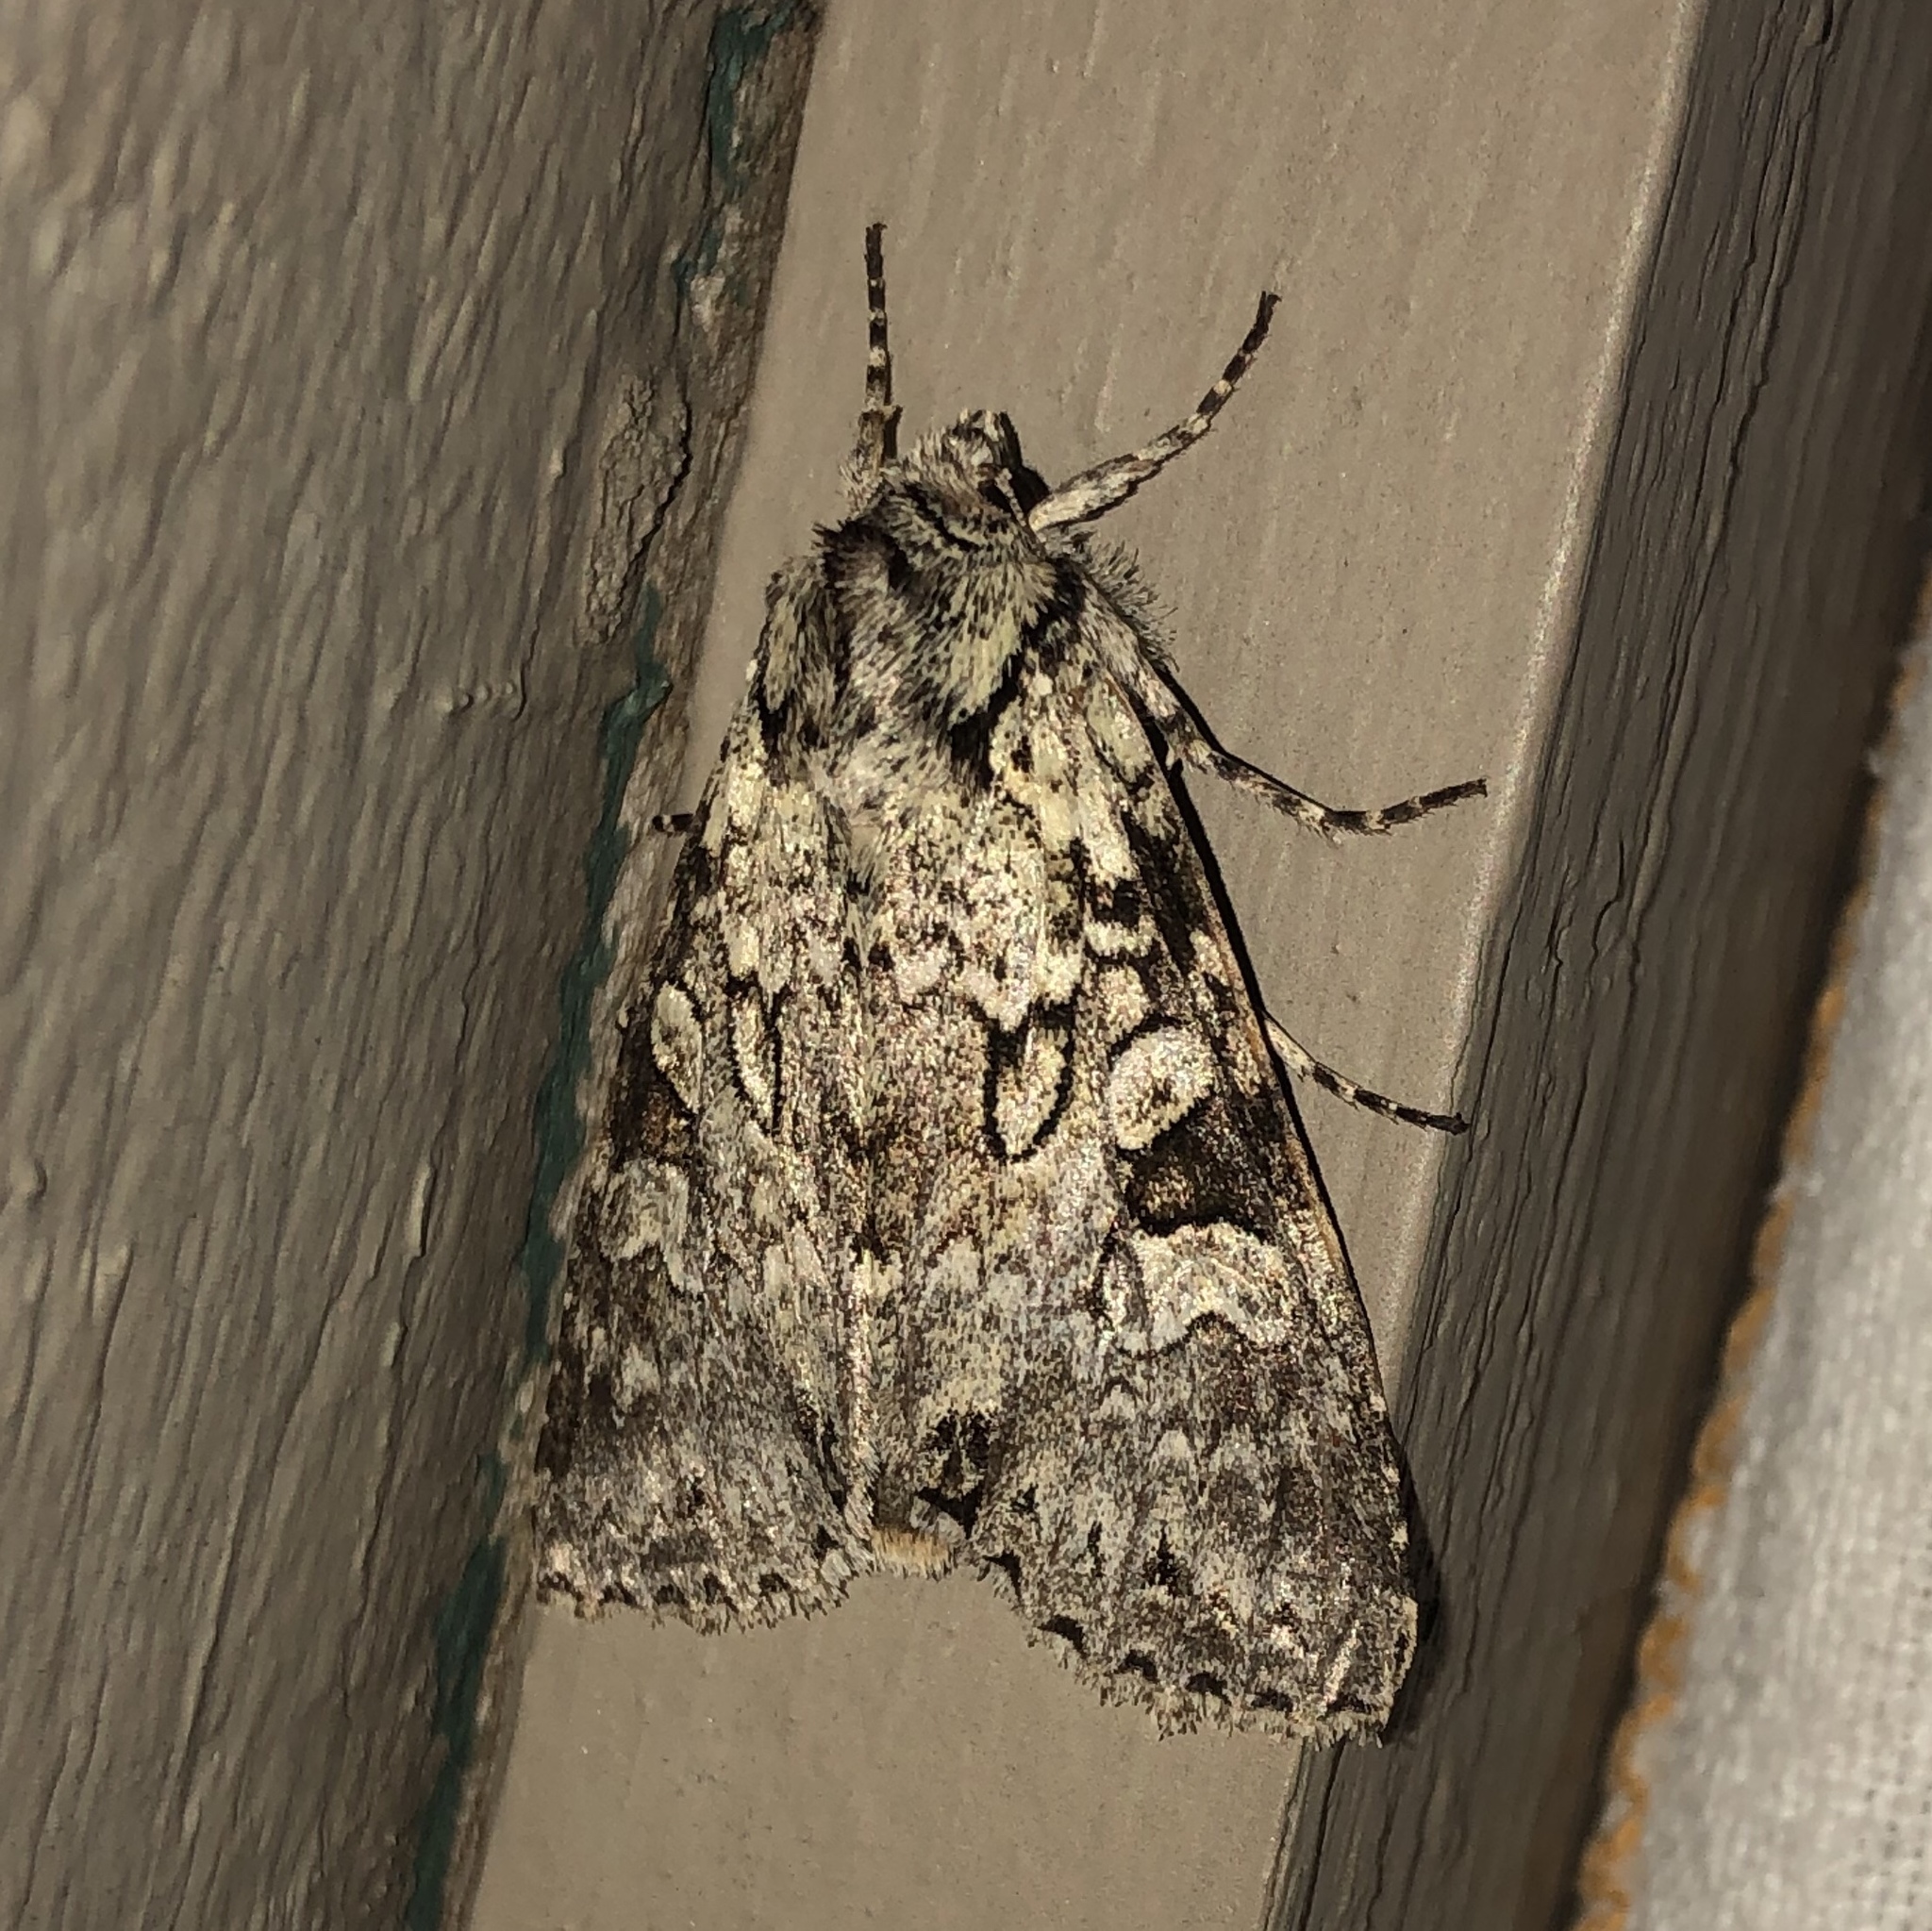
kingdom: Animalia
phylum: Arthropoda
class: Insecta
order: Lepidoptera
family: Noctuidae
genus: Polia
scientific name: Polia nimbosa
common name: Stormy arches
